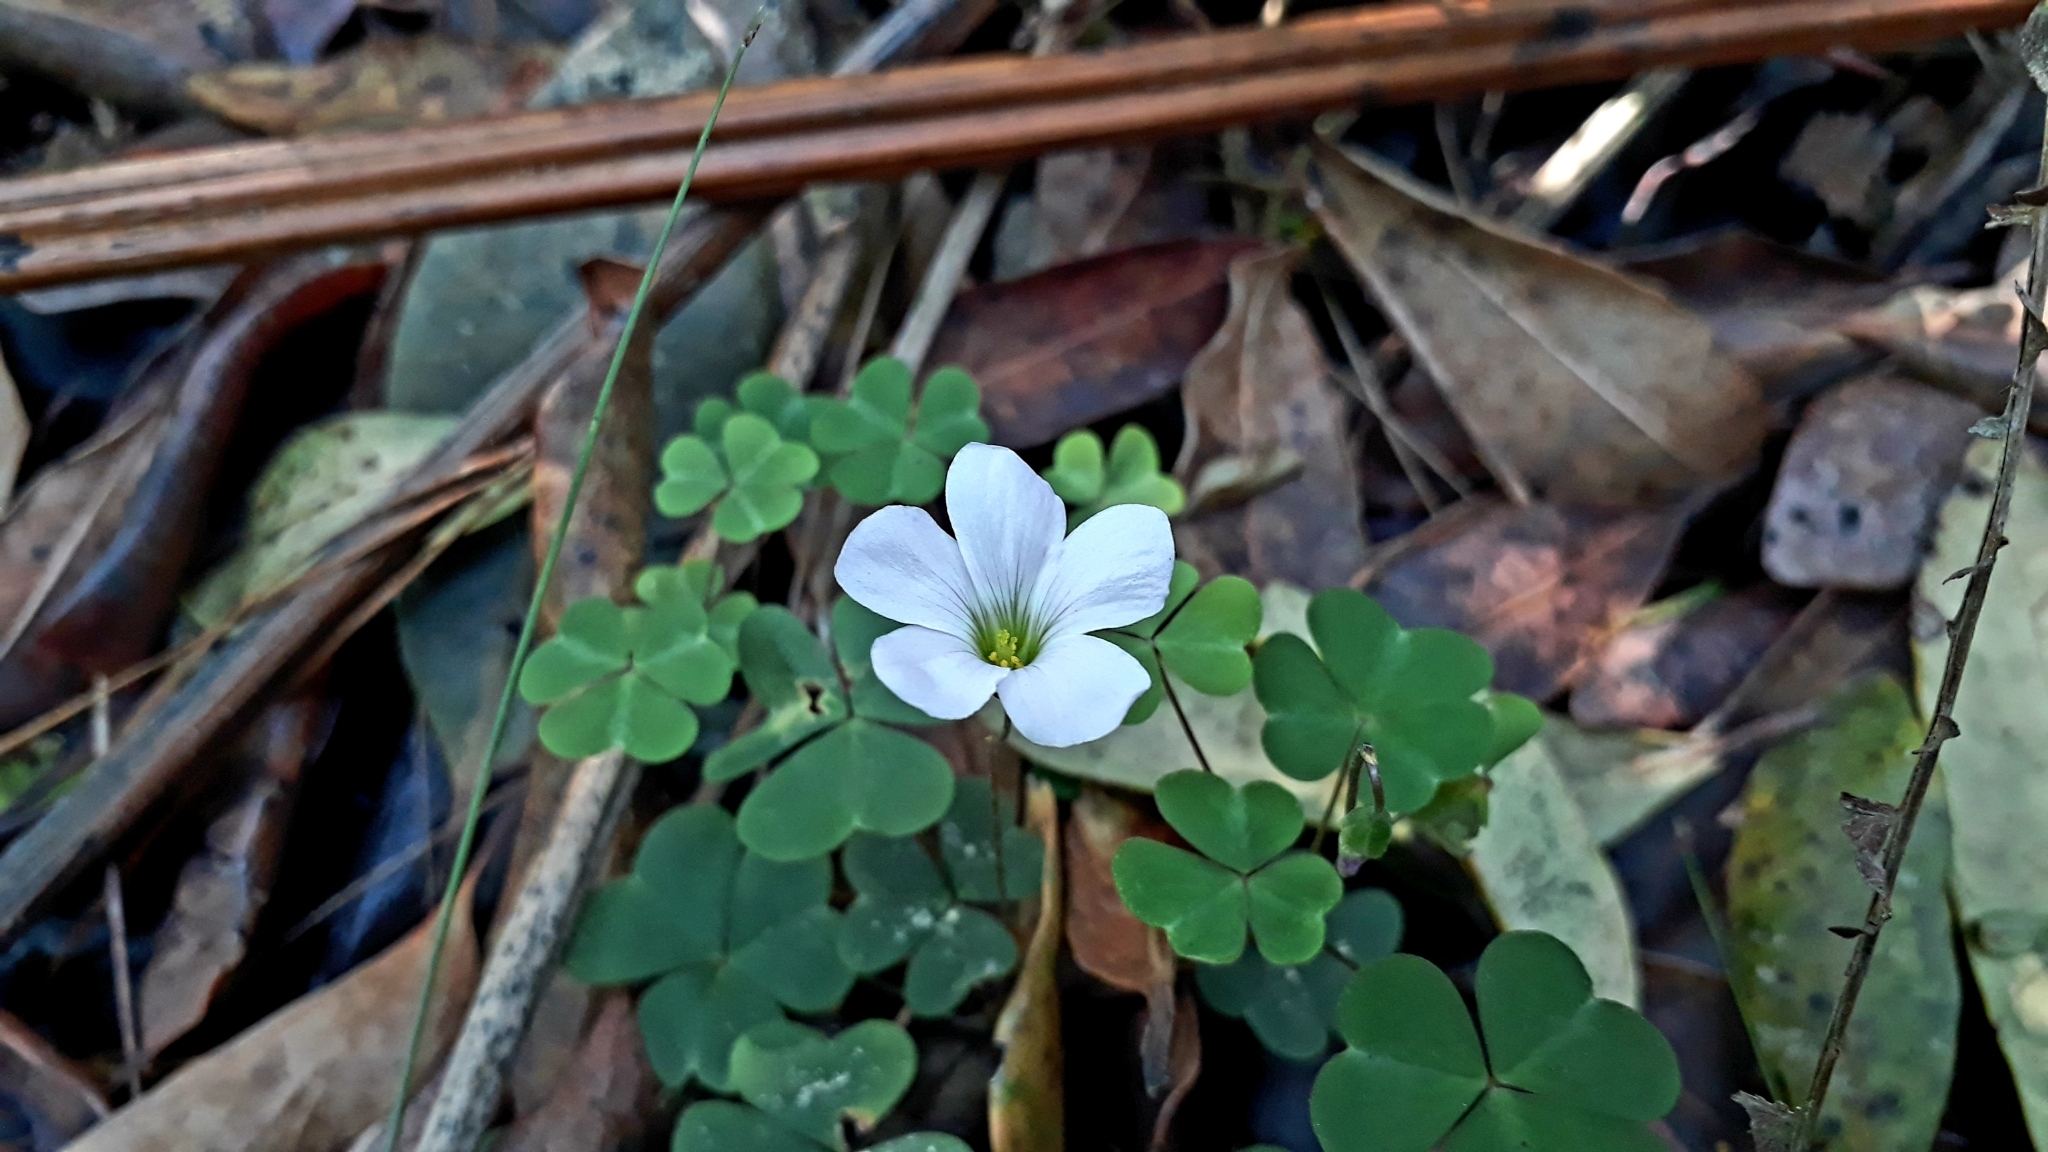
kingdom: Plantae
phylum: Tracheophyta
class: Magnoliopsida
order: Oxalidales
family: Oxalidaceae
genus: Oxalis
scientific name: Oxalis incarnata
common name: Pale pink-sorrel
